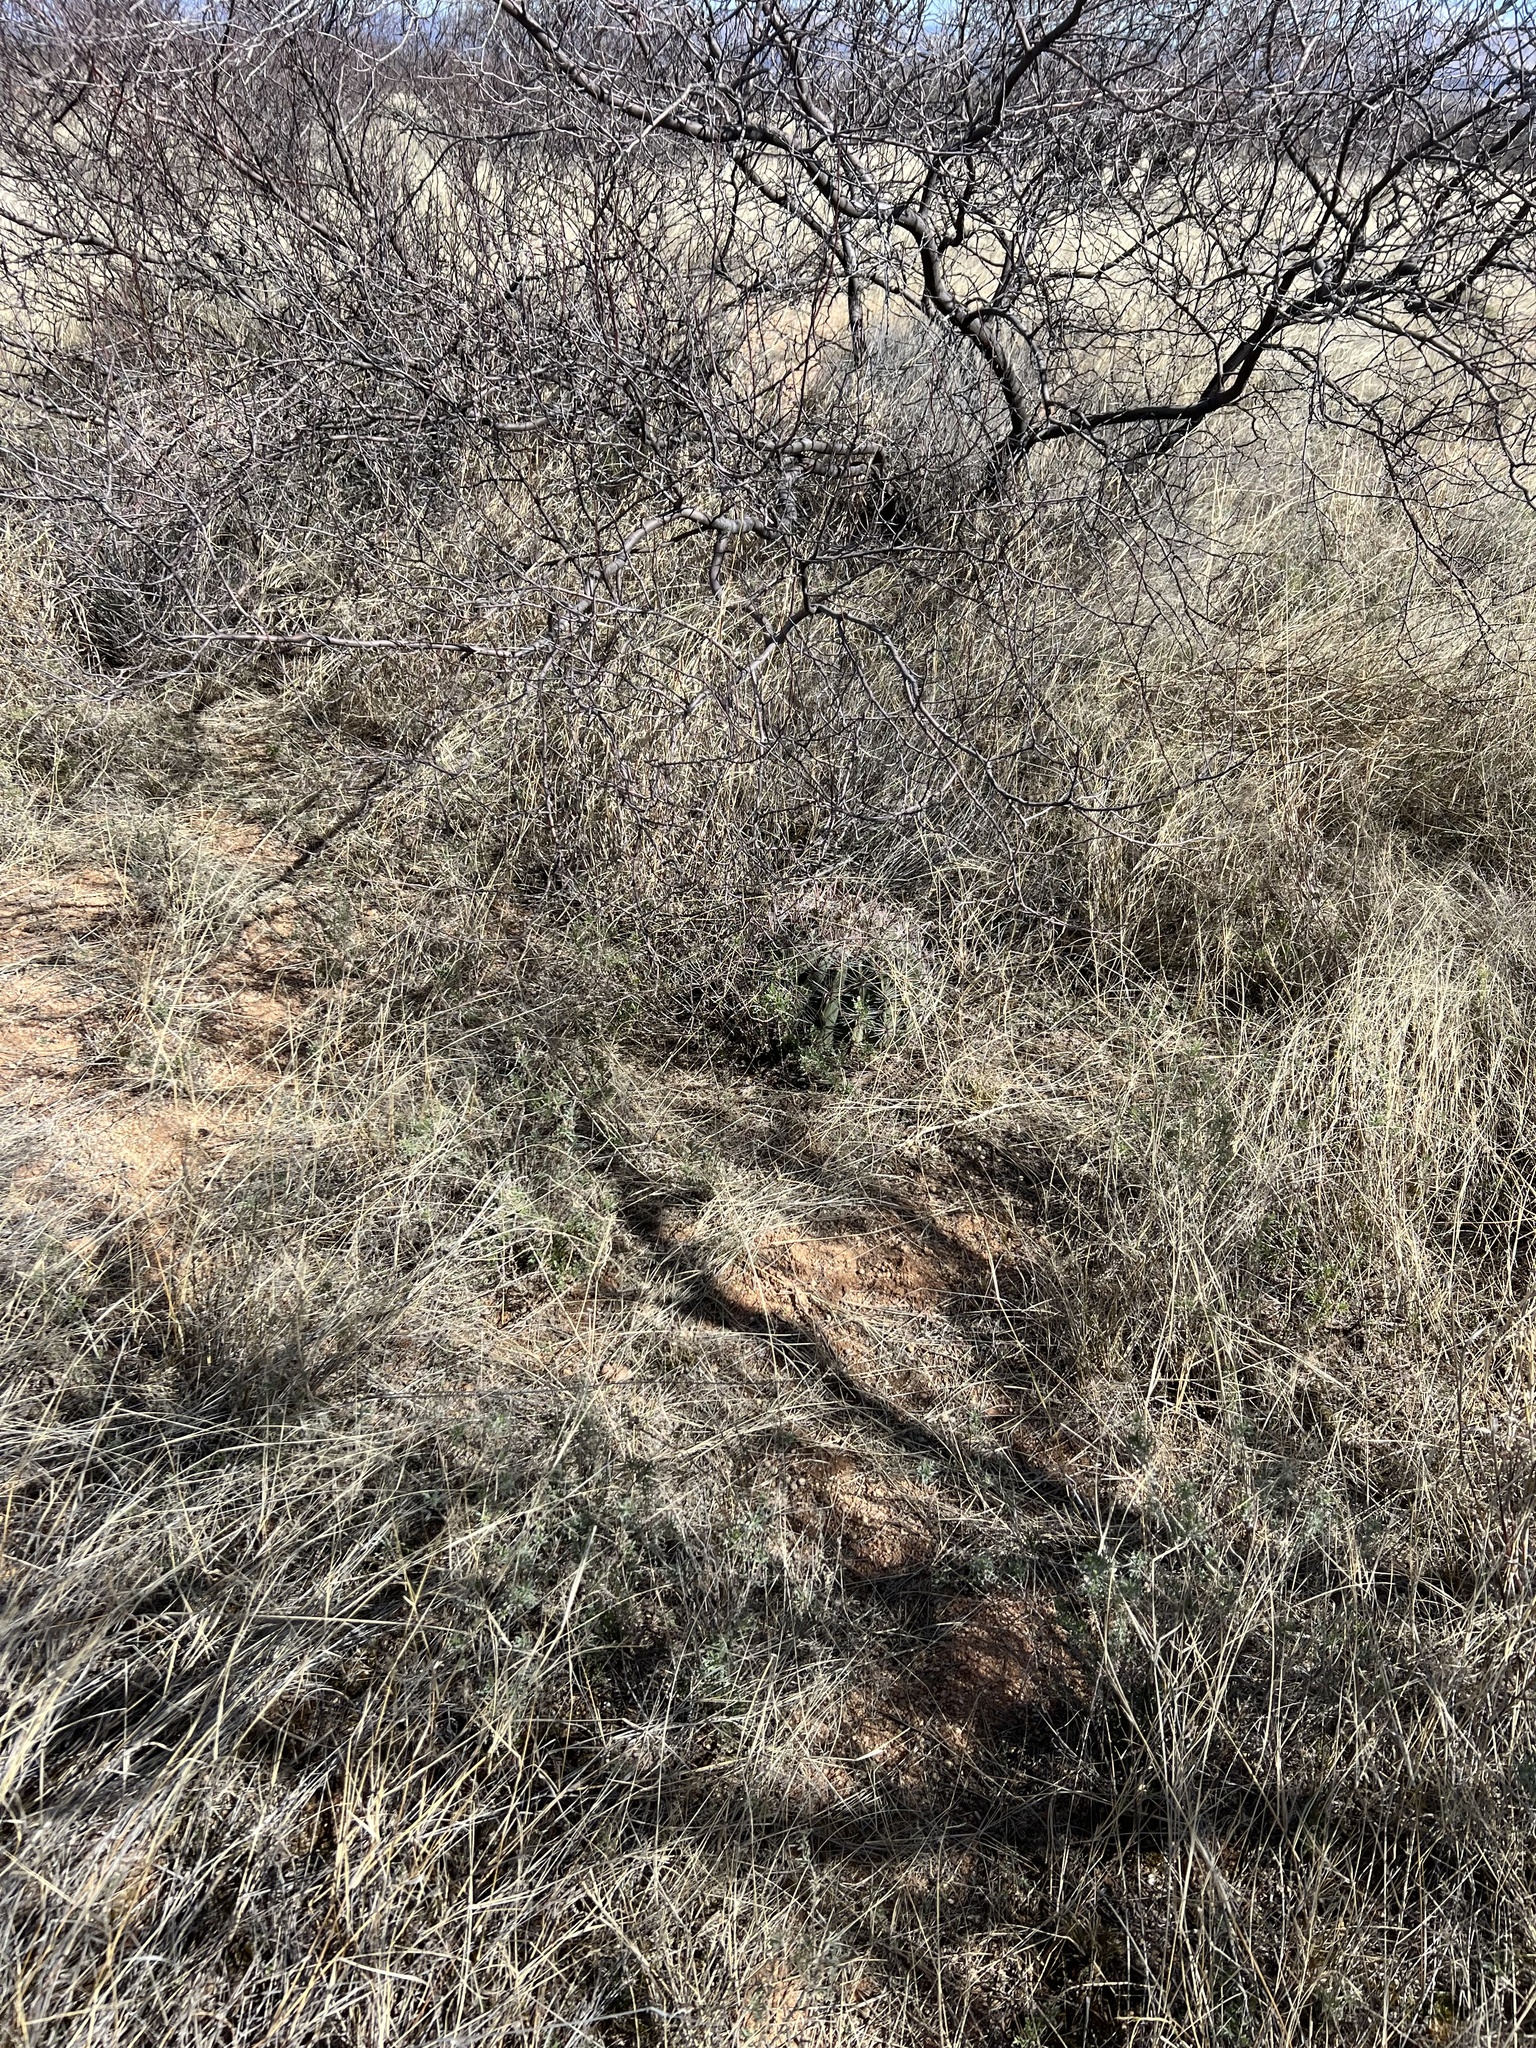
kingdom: Plantae
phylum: Tracheophyta
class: Magnoliopsida
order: Caryophyllales
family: Cactaceae
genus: Ferocactus
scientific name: Ferocactus wislizeni
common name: Candy barrel cactus
